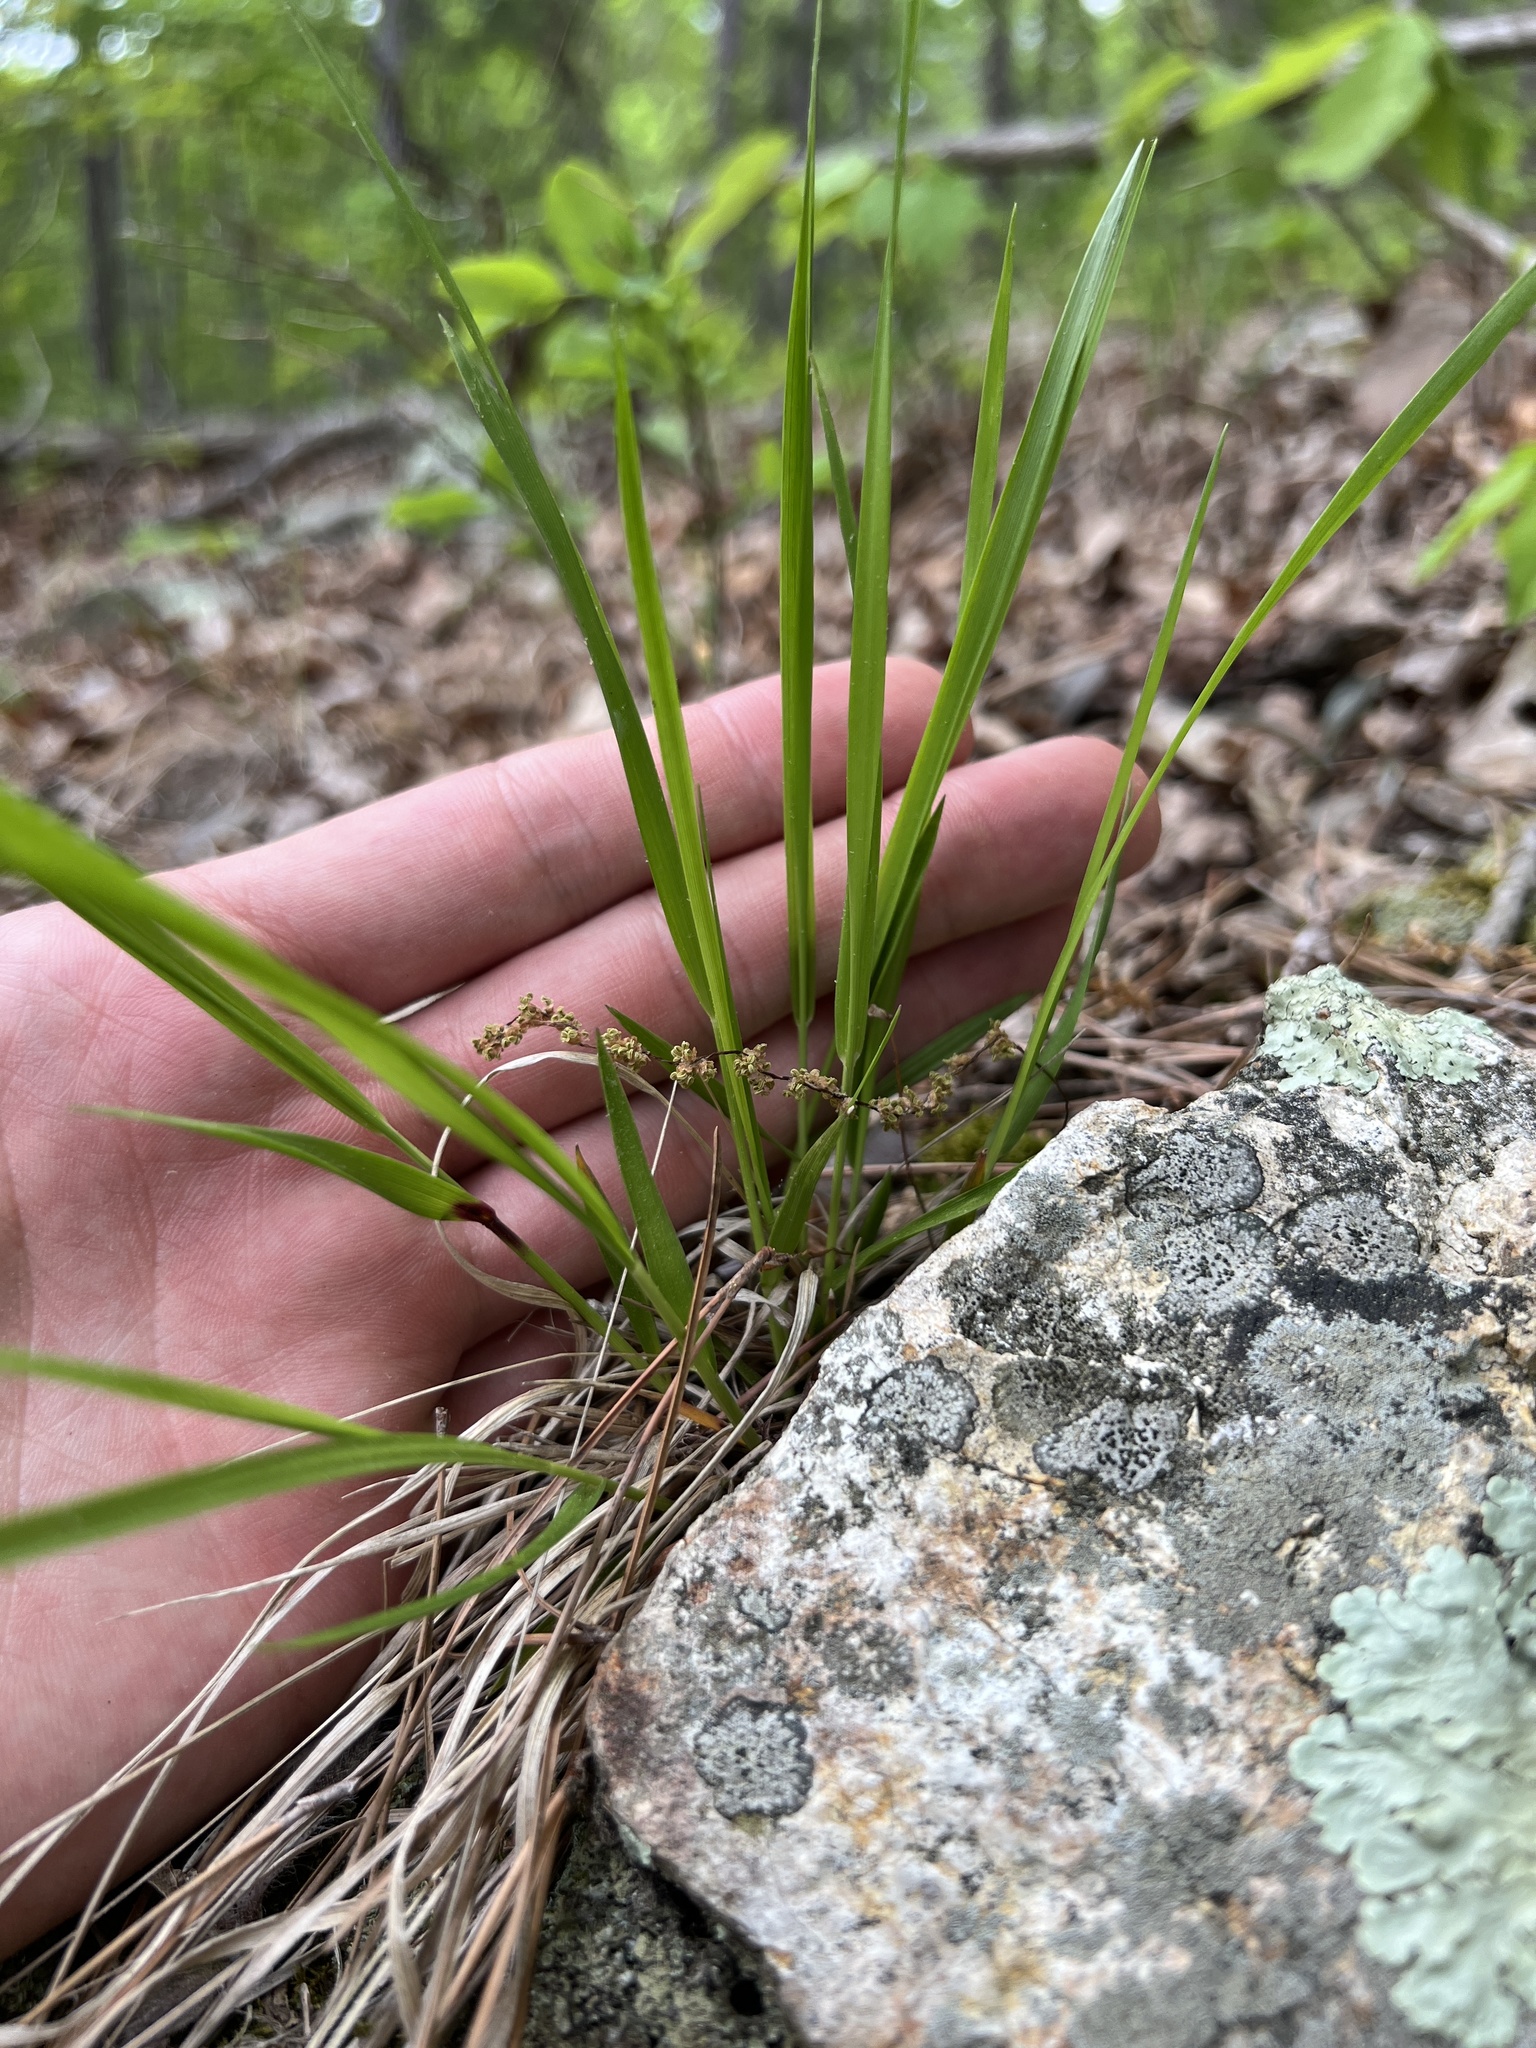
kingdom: Plantae
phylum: Tracheophyta
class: Liliopsida
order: Poales
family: Poaceae
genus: Dichanthelium
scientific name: Dichanthelium linearifolium
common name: Linear-leaved panicgrass
